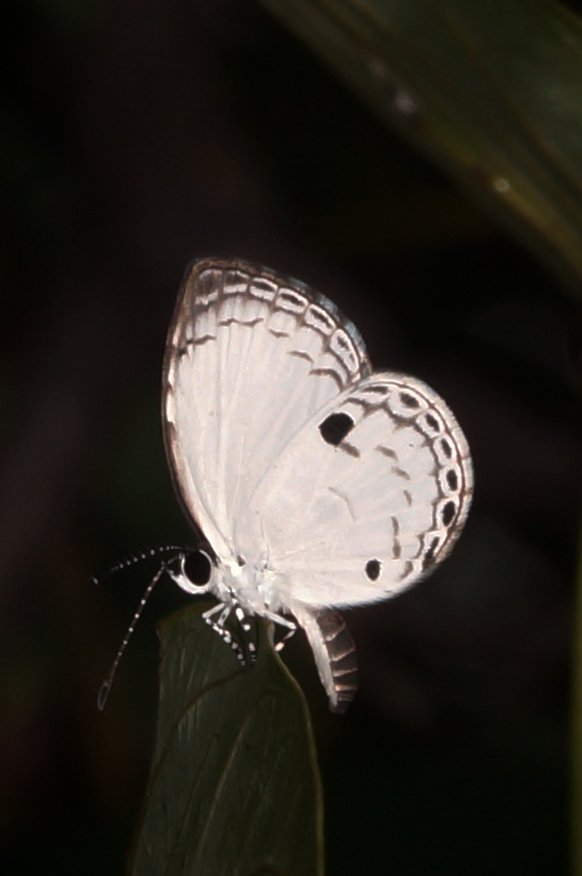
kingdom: Animalia
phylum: Arthropoda
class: Insecta
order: Lepidoptera
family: Lycaenidae
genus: Neopithecops
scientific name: Neopithecops zalmora
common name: Quaker
